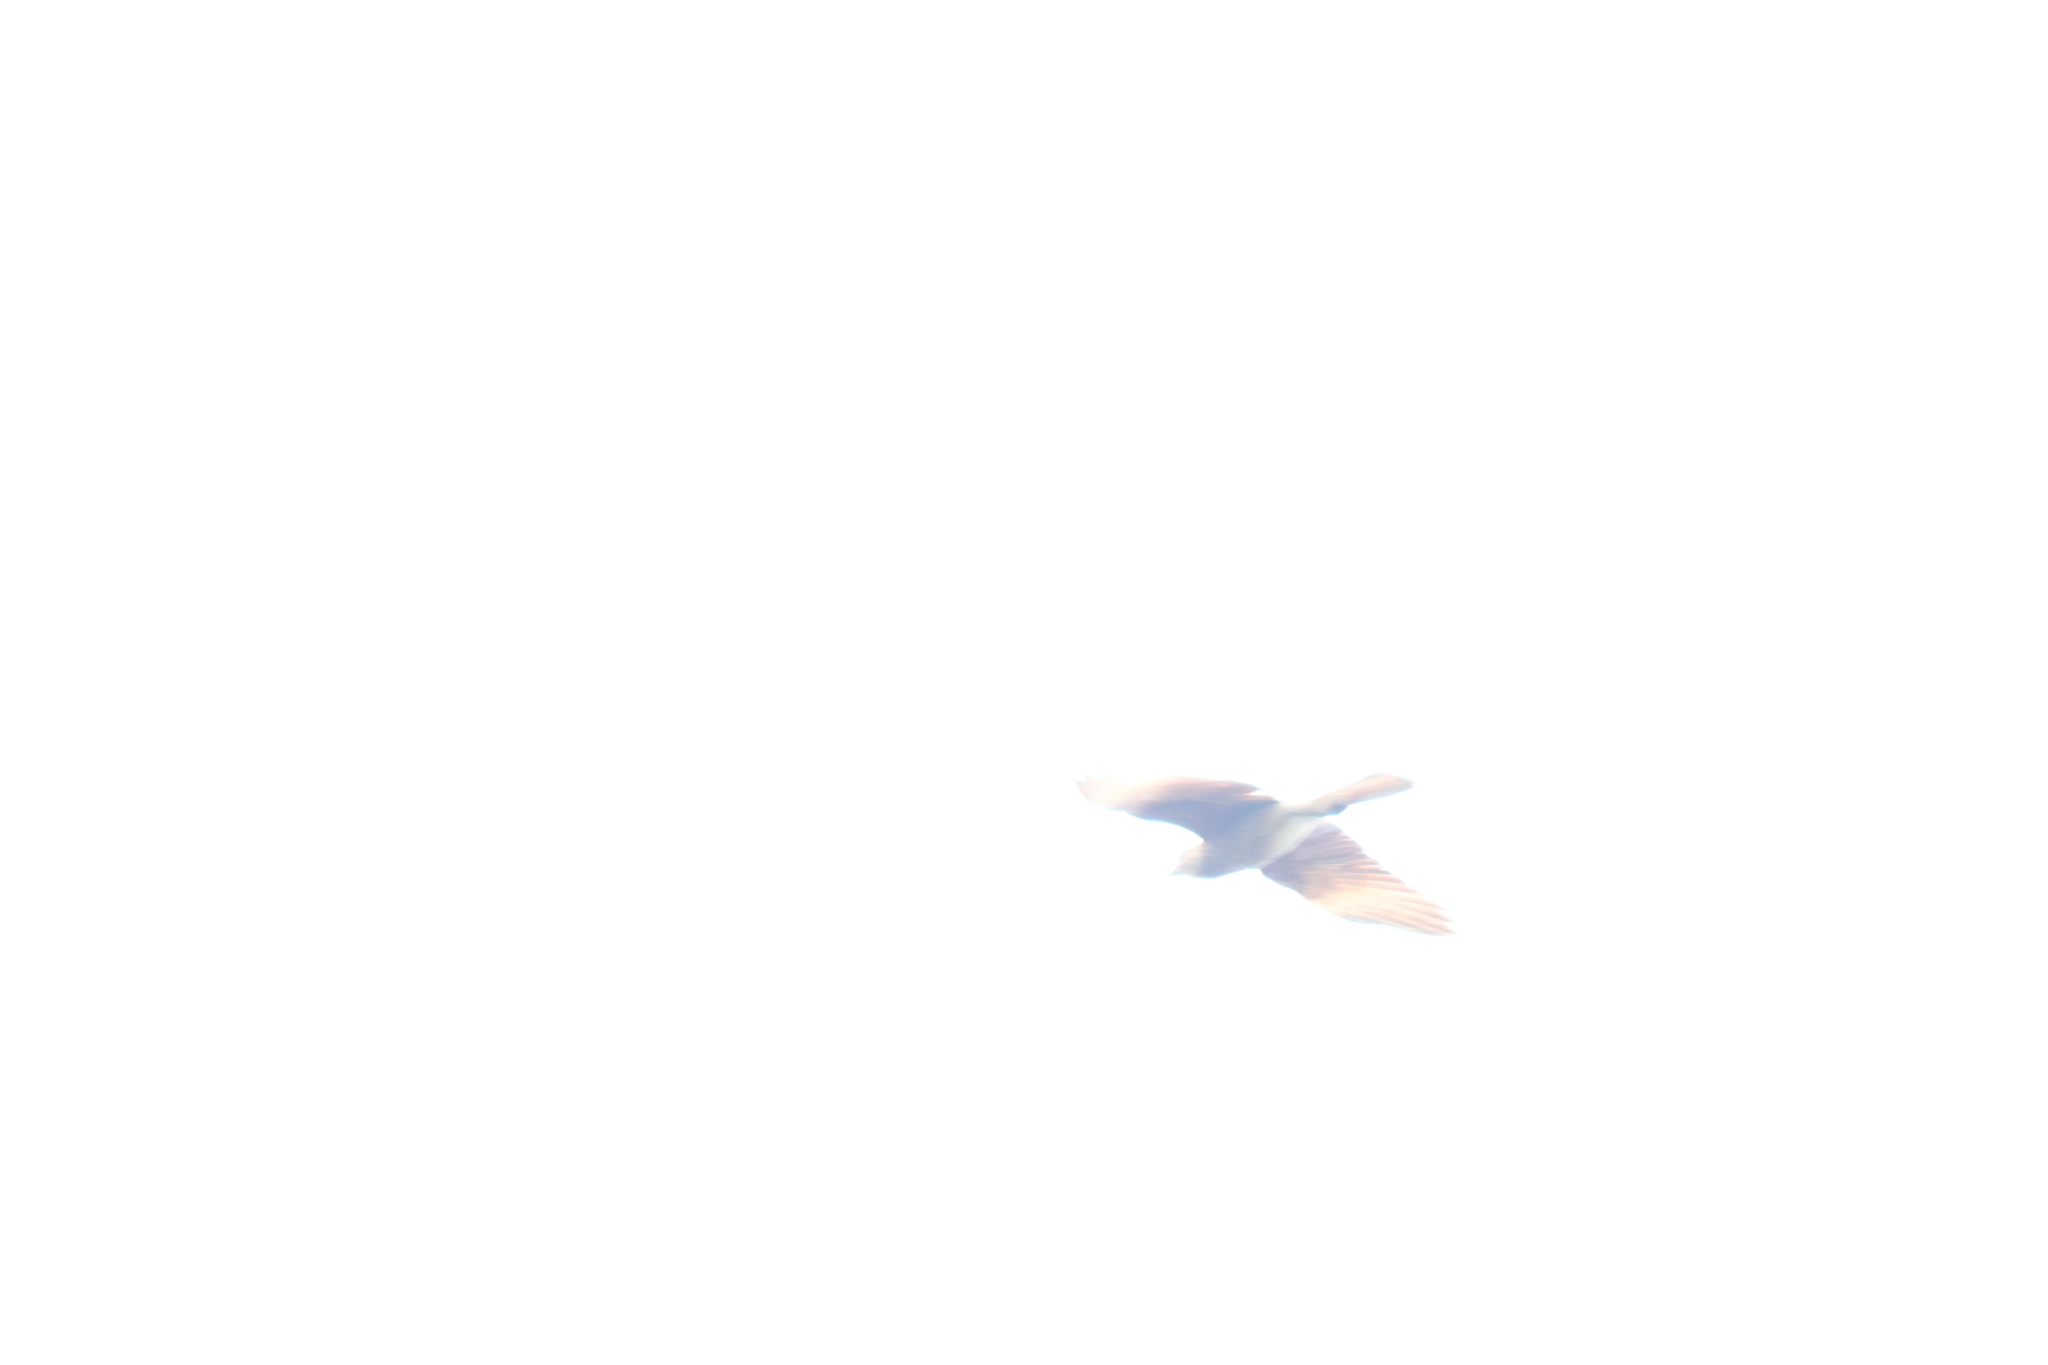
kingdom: Animalia
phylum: Chordata
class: Aves
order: Falconiformes
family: Falconidae
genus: Daptrius
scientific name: Daptrius
